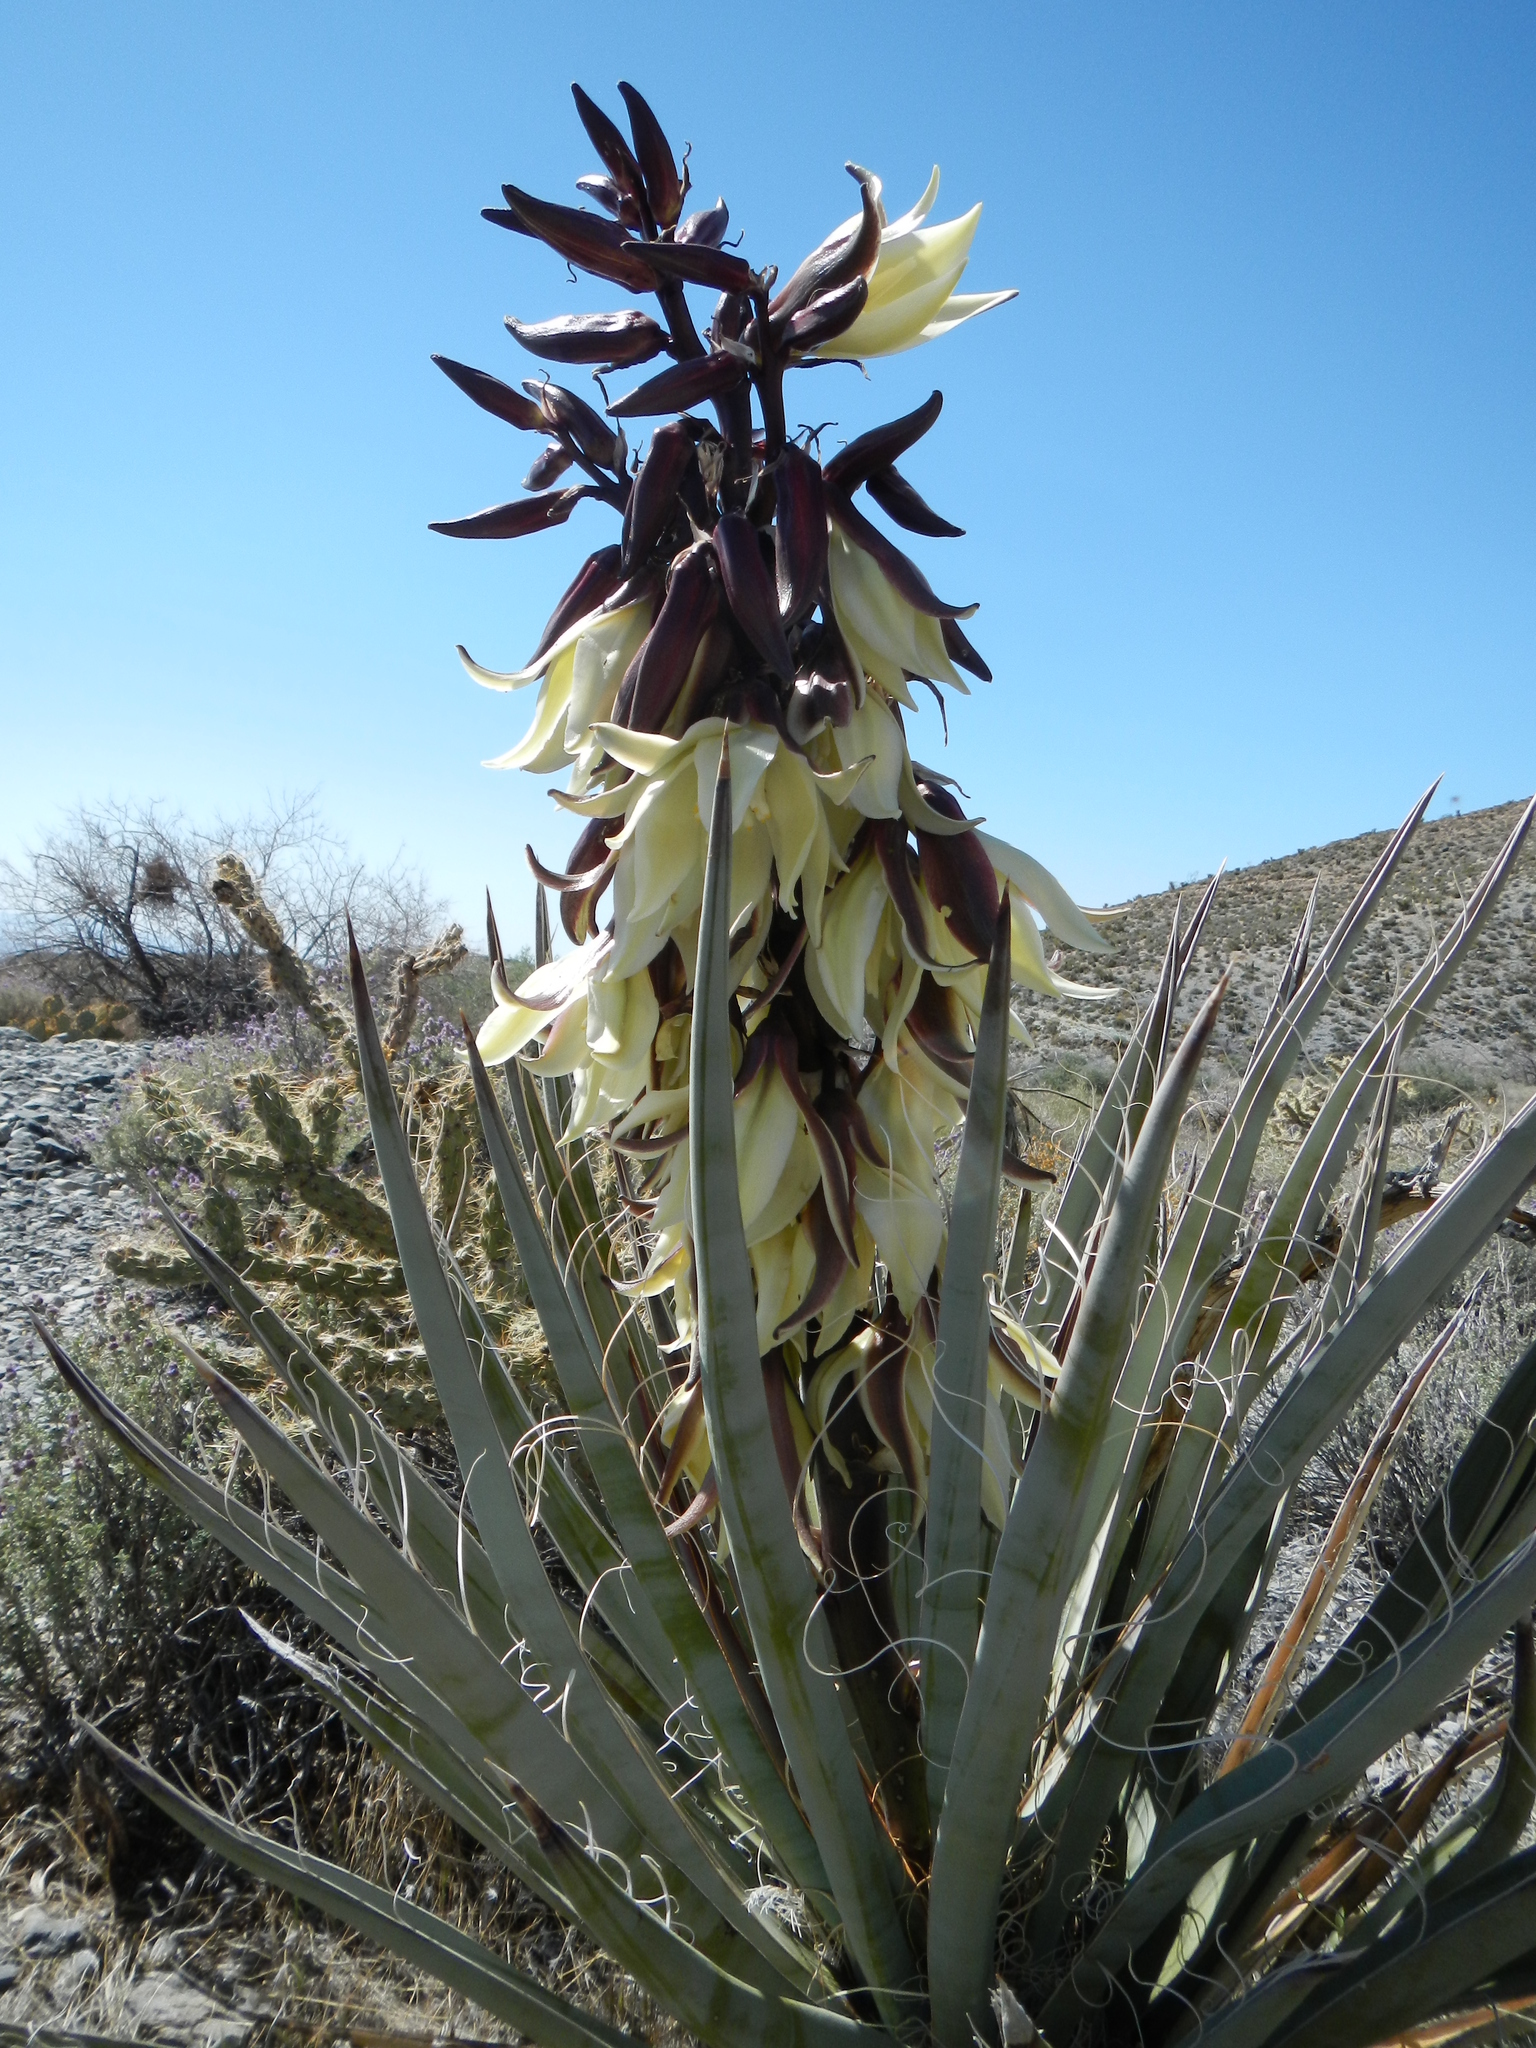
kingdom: Plantae
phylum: Tracheophyta
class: Liliopsida
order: Asparagales
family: Asparagaceae
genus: Yucca
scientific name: Yucca baccata
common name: Banana yucca
